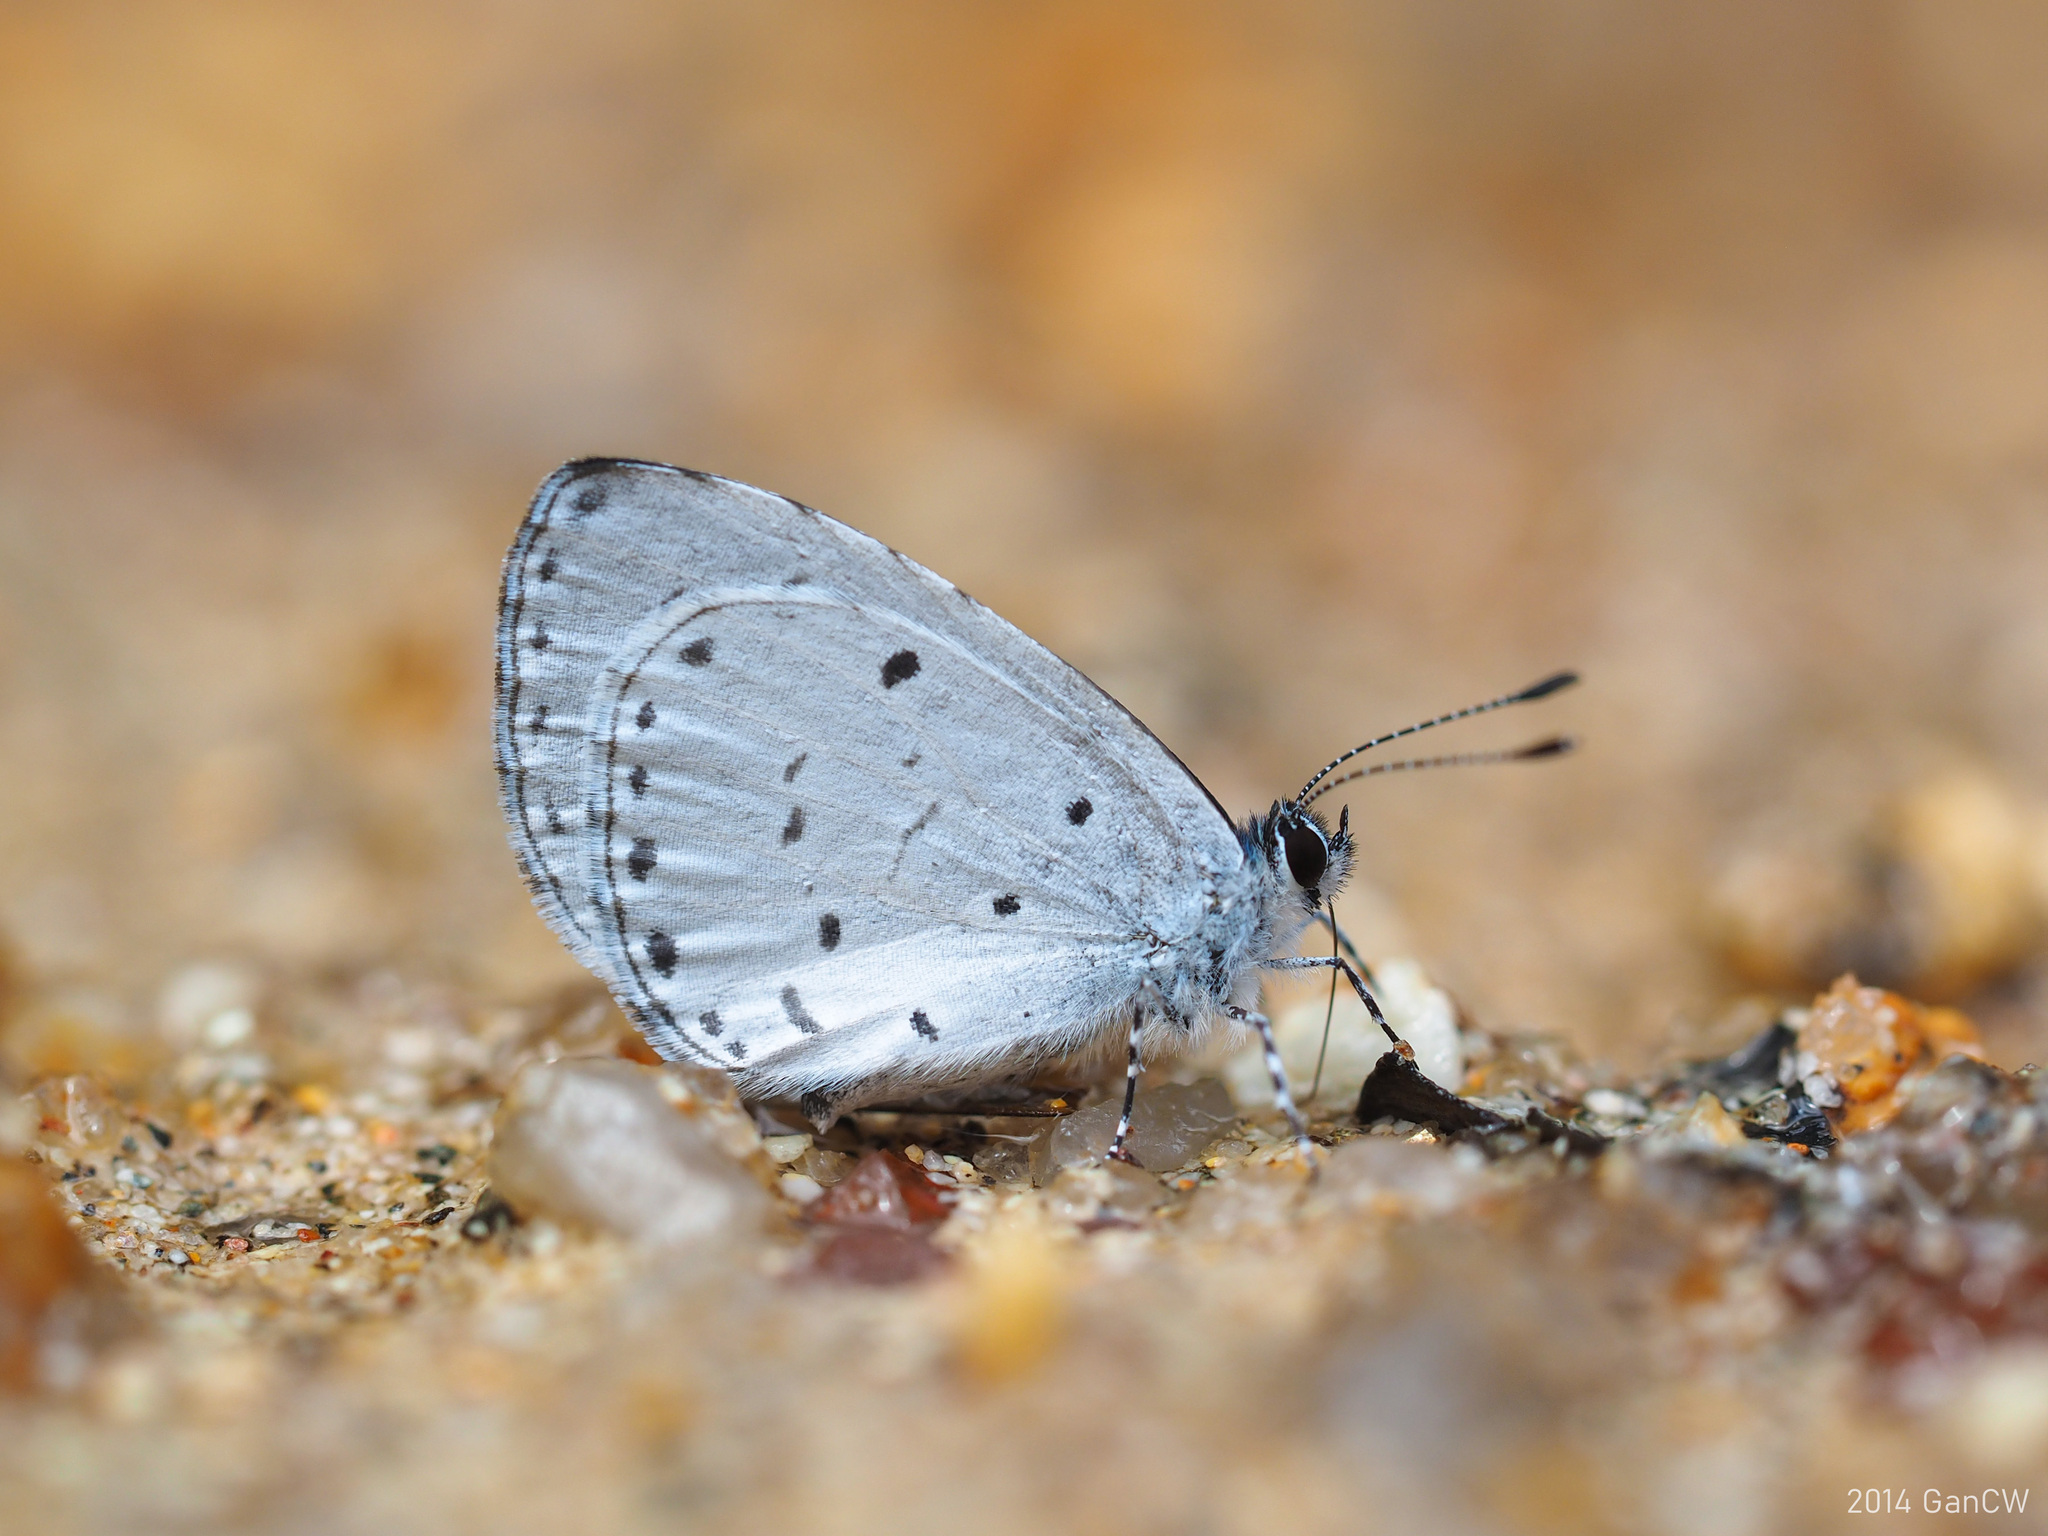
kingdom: Animalia
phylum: Arthropoda
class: Insecta
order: Lepidoptera
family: Lycaenidae
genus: Udara
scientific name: Udara
